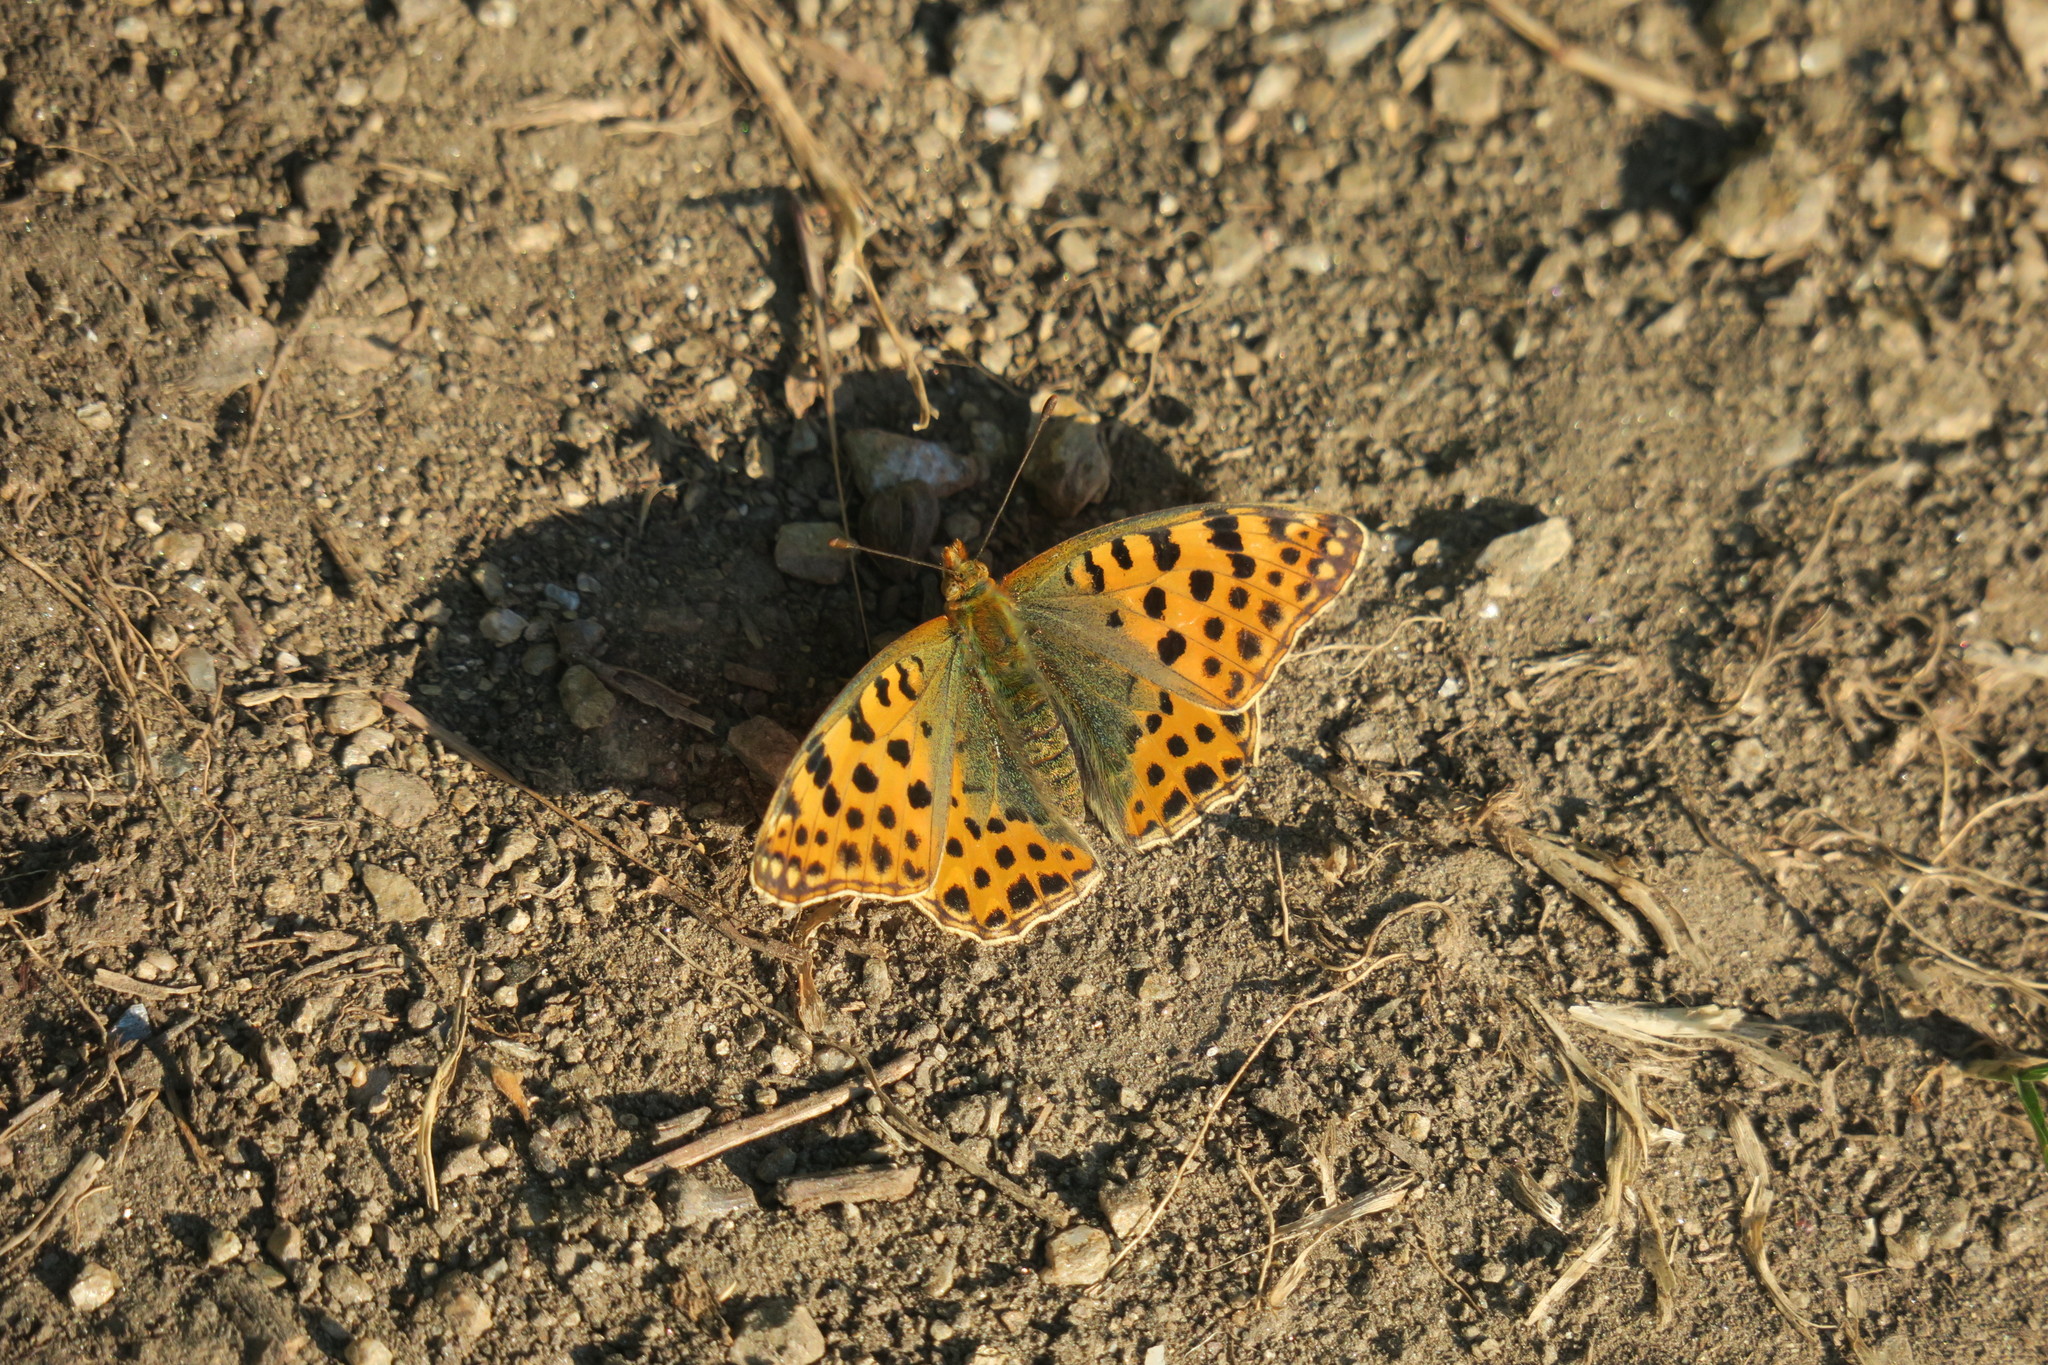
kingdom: Animalia
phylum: Arthropoda
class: Insecta
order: Lepidoptera
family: Nymphalidae
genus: Issoria
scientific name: Issoria lathonia
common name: Queen of spain fritillary
